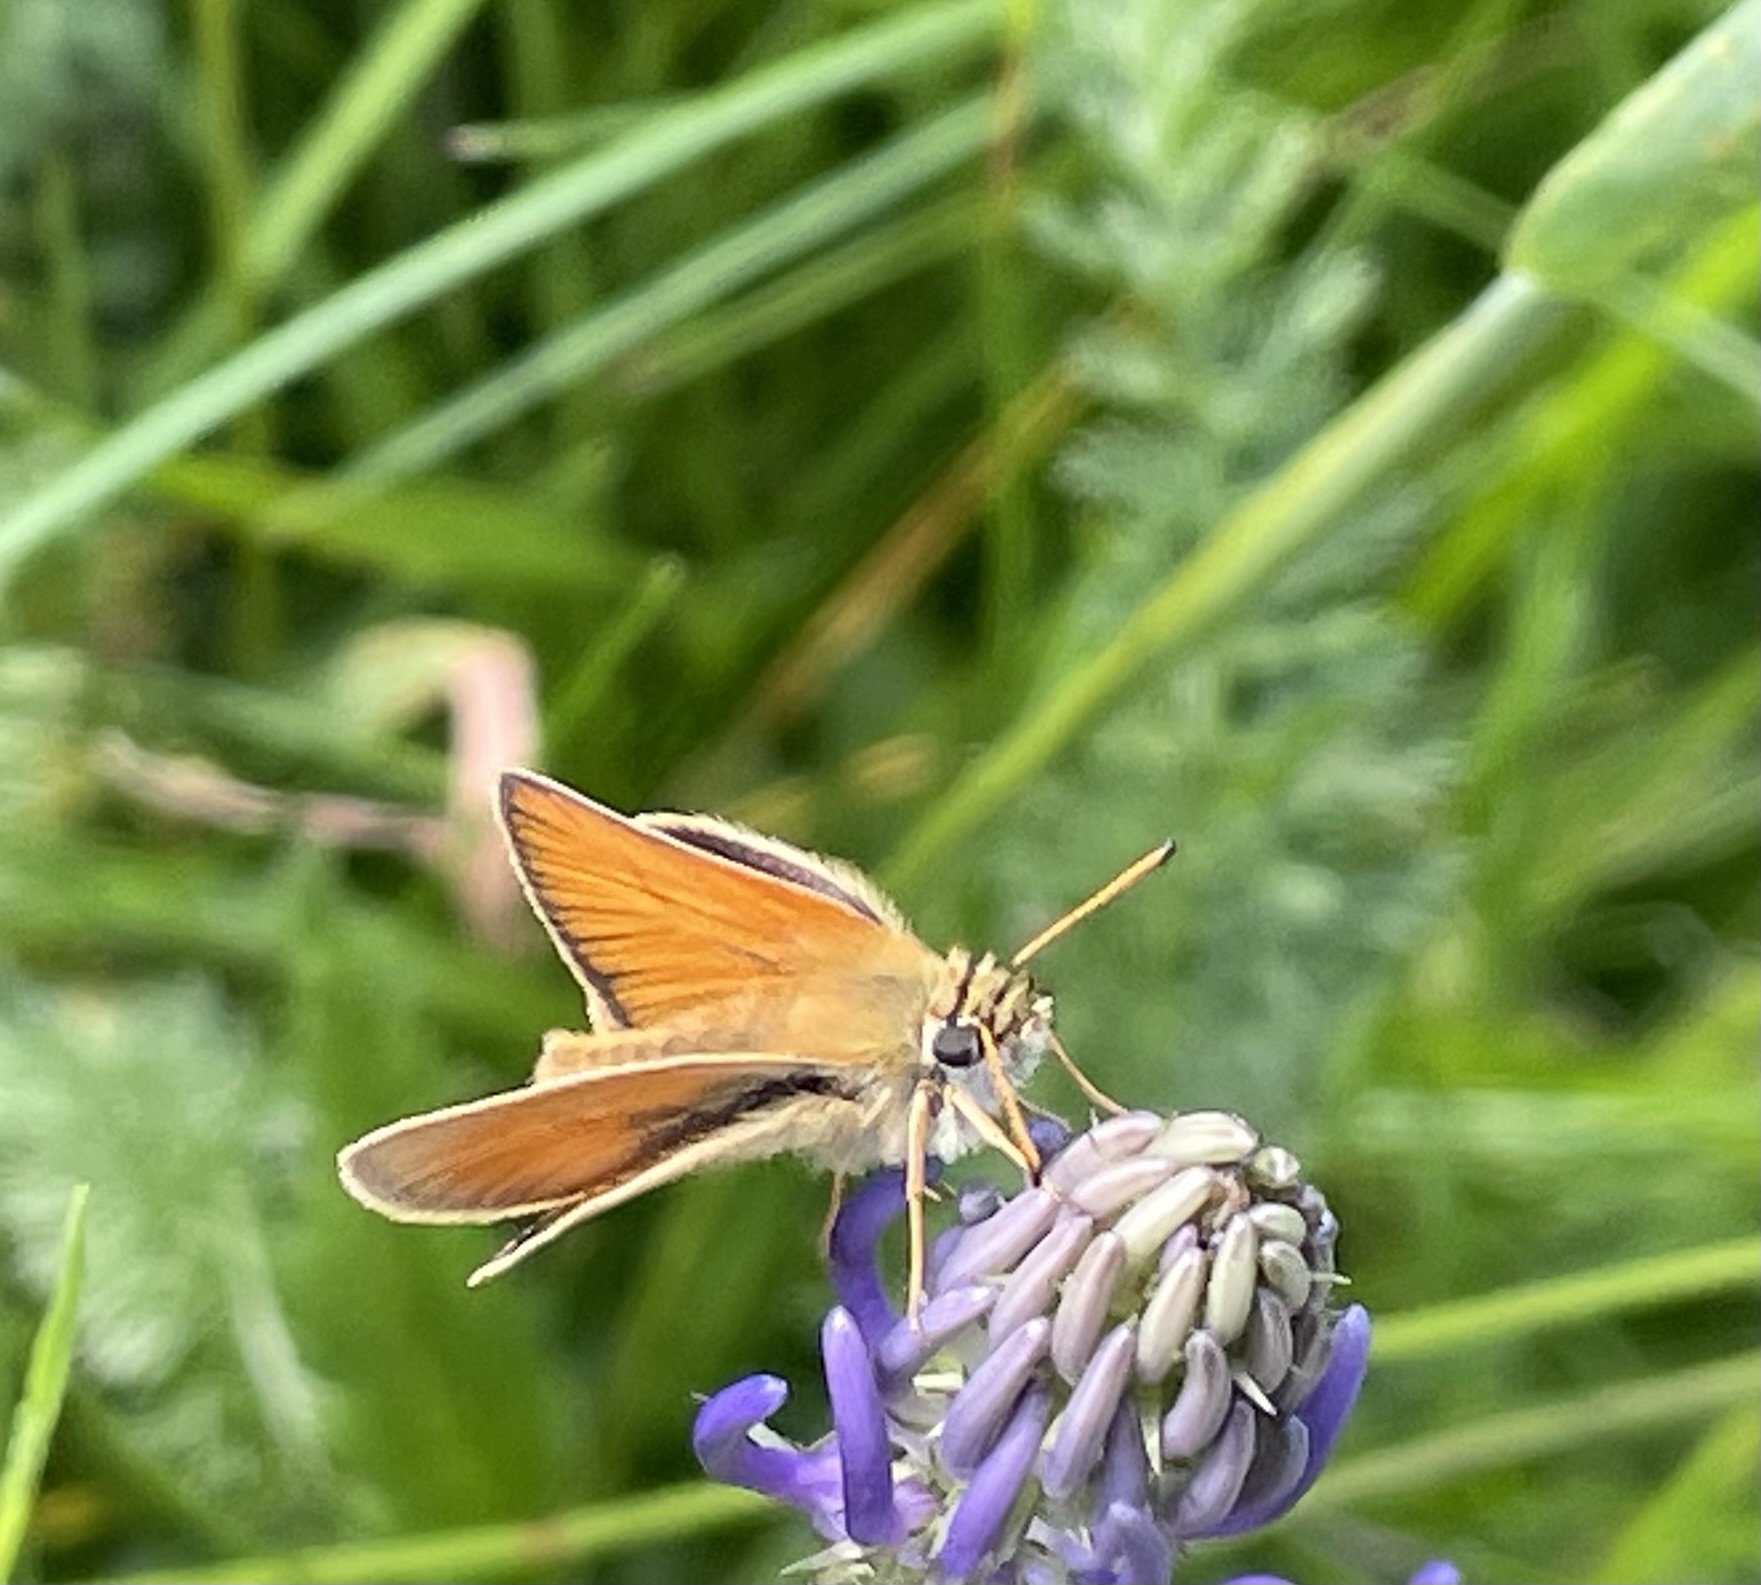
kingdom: Animalia
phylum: Arthropoda
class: Insecta
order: Lepidoptera
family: Hesperiidae
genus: Thymelicus
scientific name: Thymelicus lineola
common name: Essex skipper
